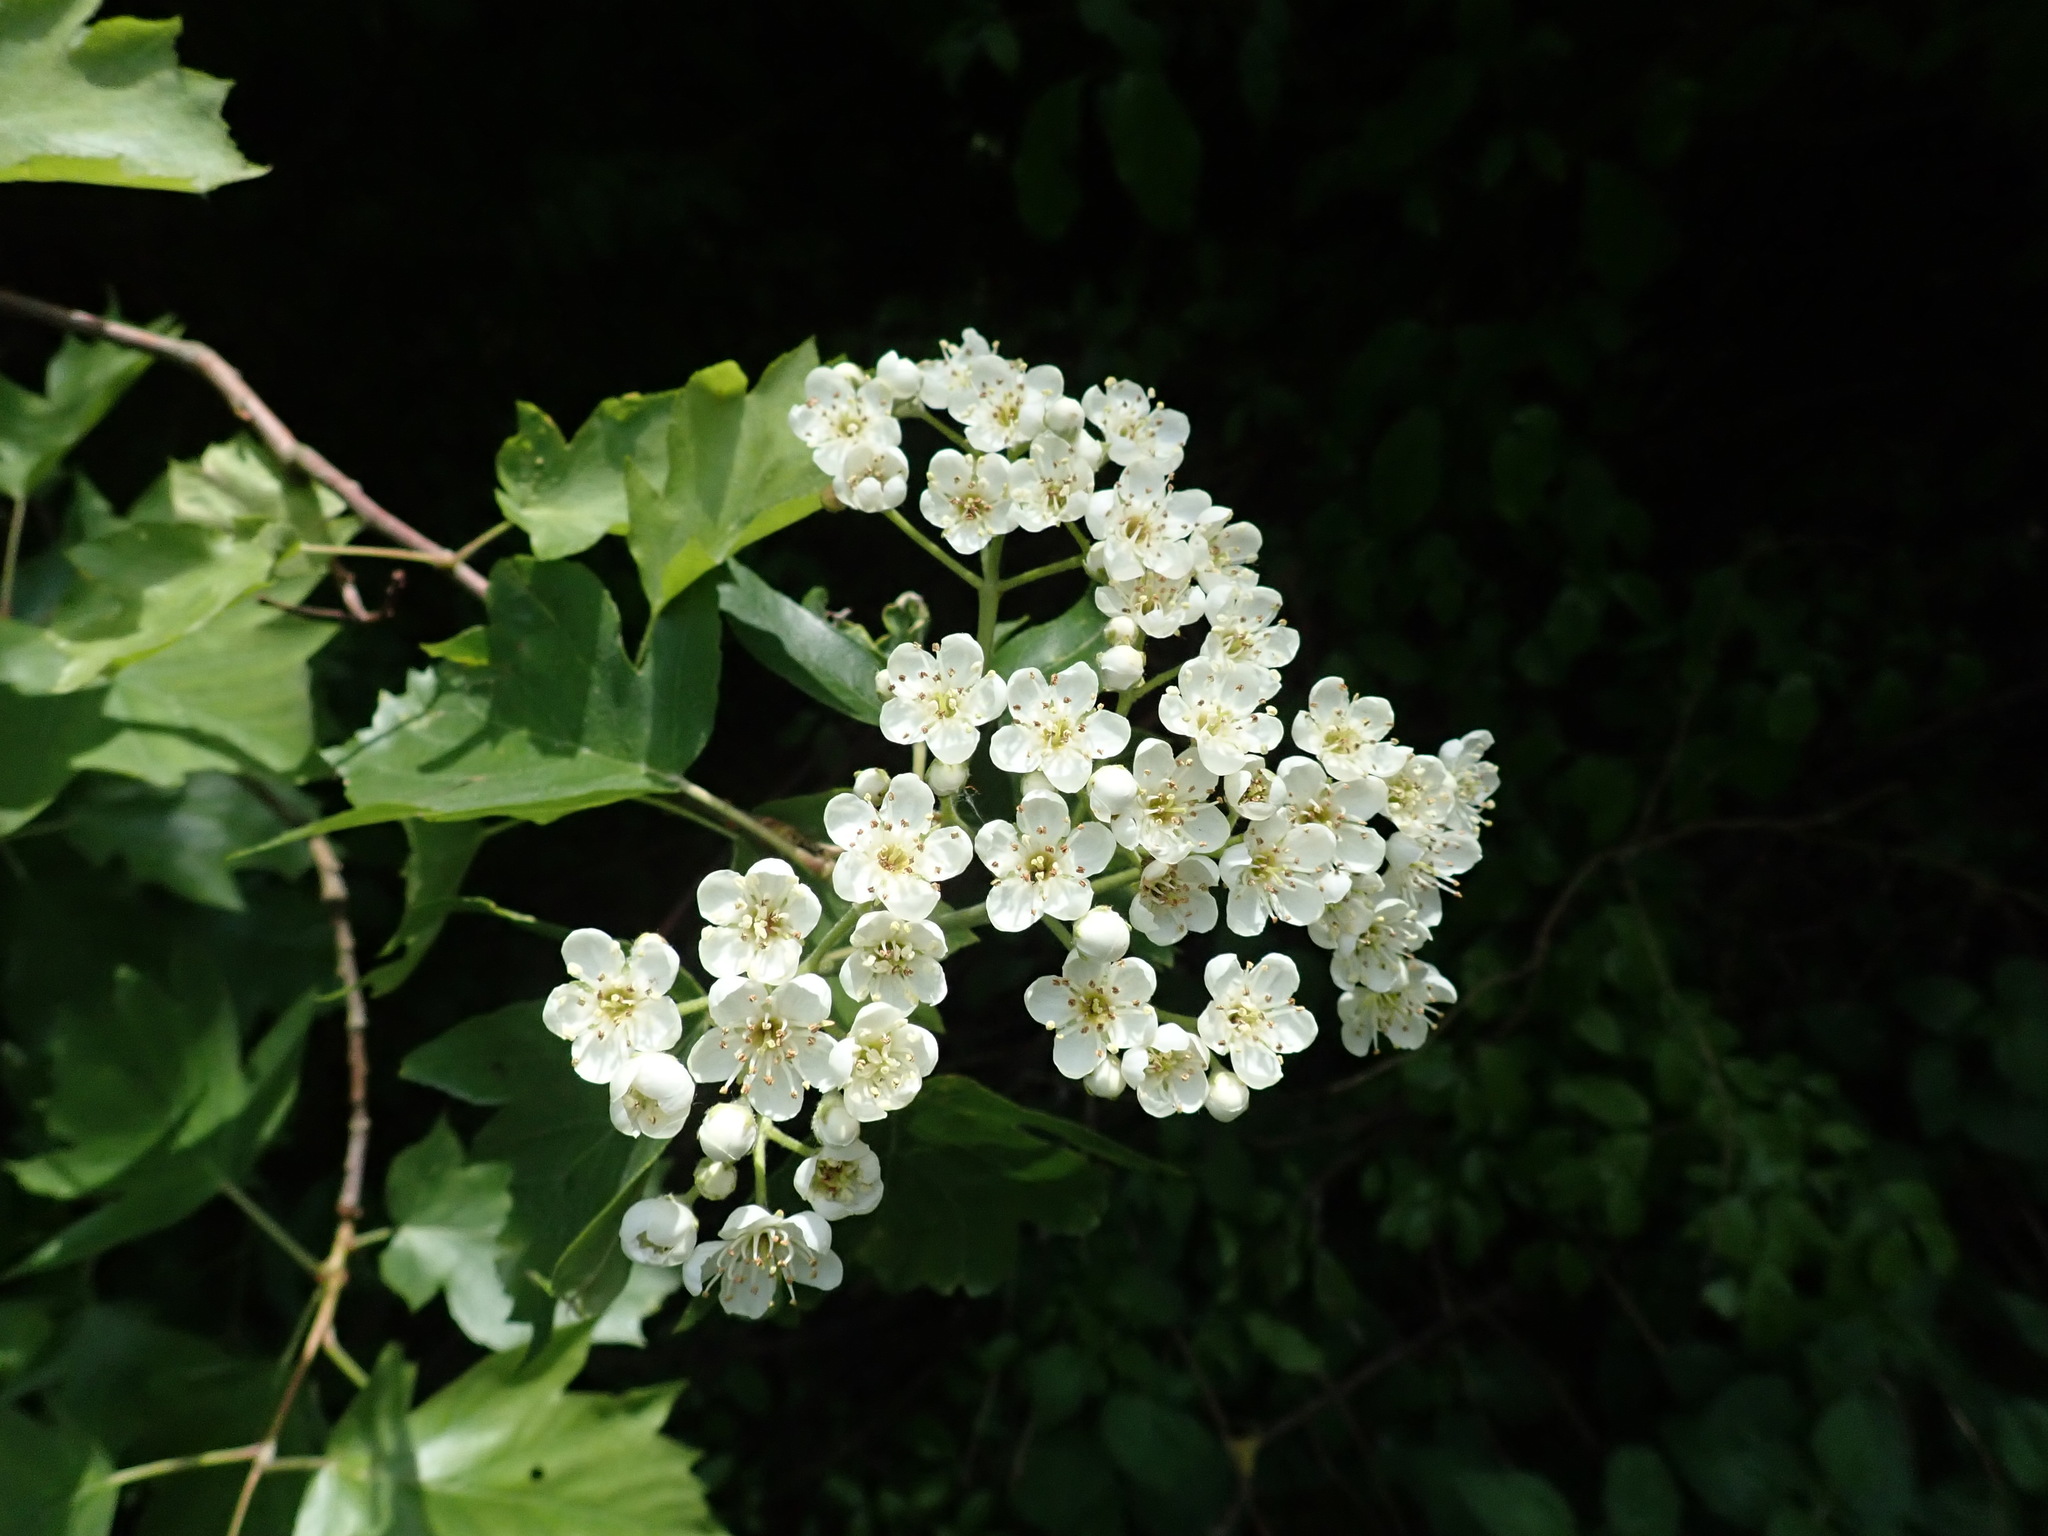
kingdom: Plantae
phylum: Tracheophyta
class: Magnoliopsida
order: Rosales
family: Rosaceae
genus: Torminalis
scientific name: Torminalis glaberrima
